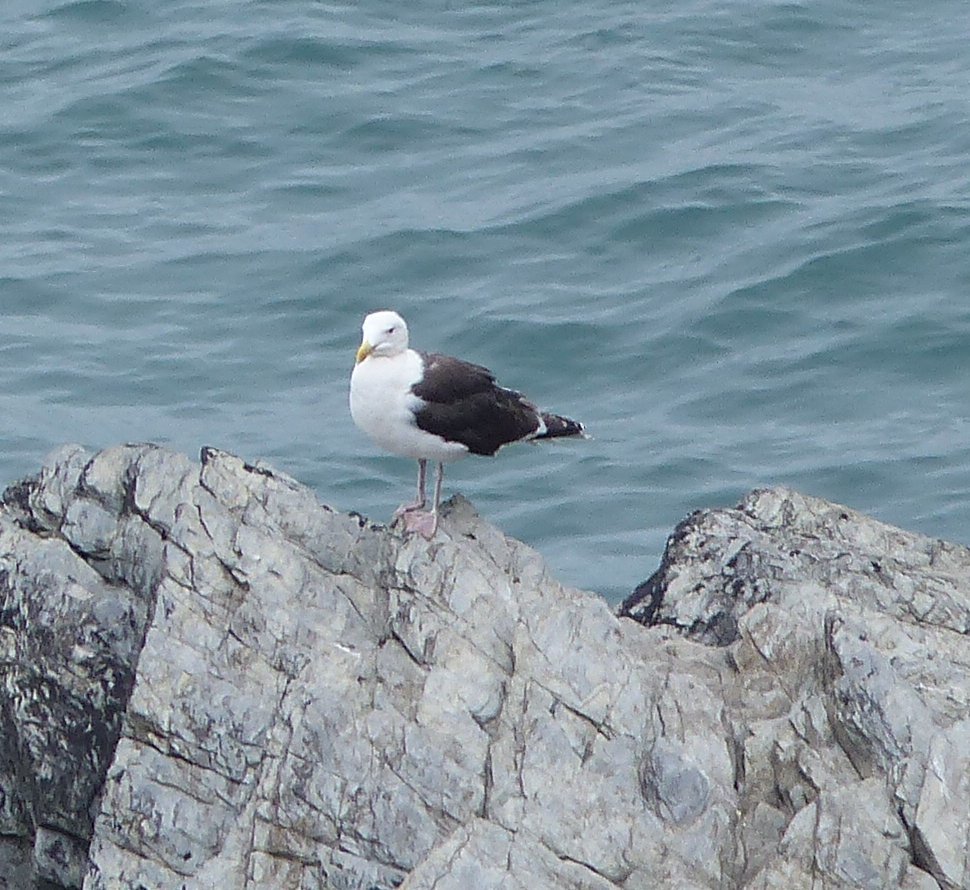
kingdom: Animalia
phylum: Chordata
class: Aves
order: Charadriiformes
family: Laridae
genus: Larus
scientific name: Larus marinus
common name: Great black-backed gull
